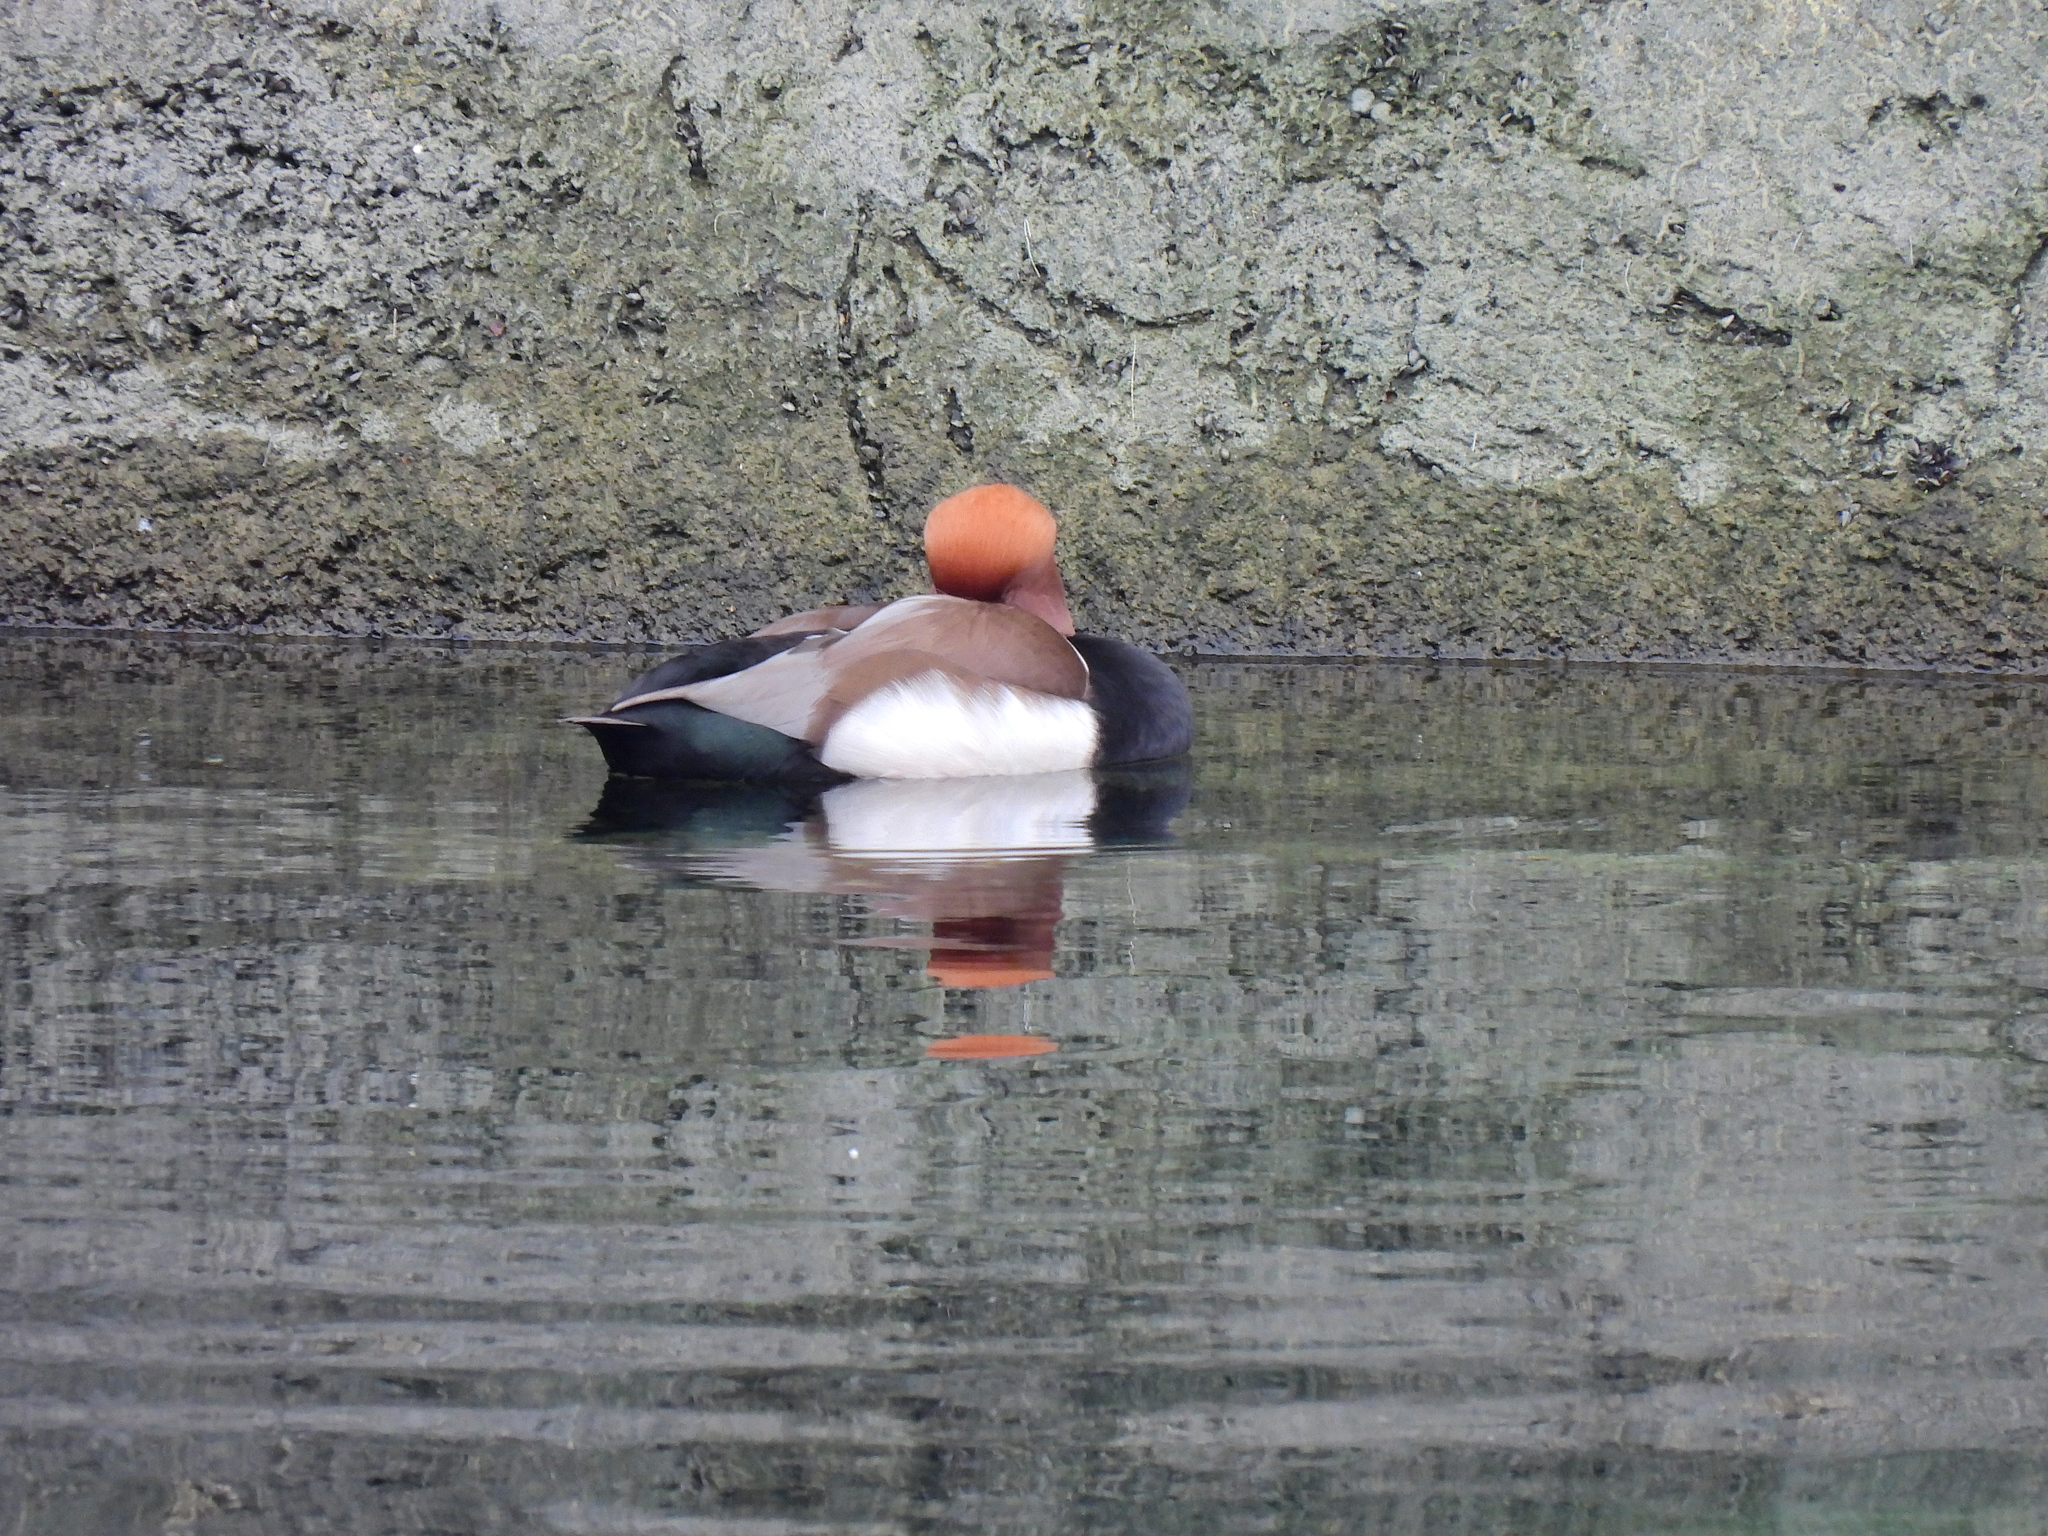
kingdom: Animalia
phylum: Chordata
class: Aves
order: Anseriformes
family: Anatidae
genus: Netta
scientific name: Netta rufina
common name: Red-crested pochard
